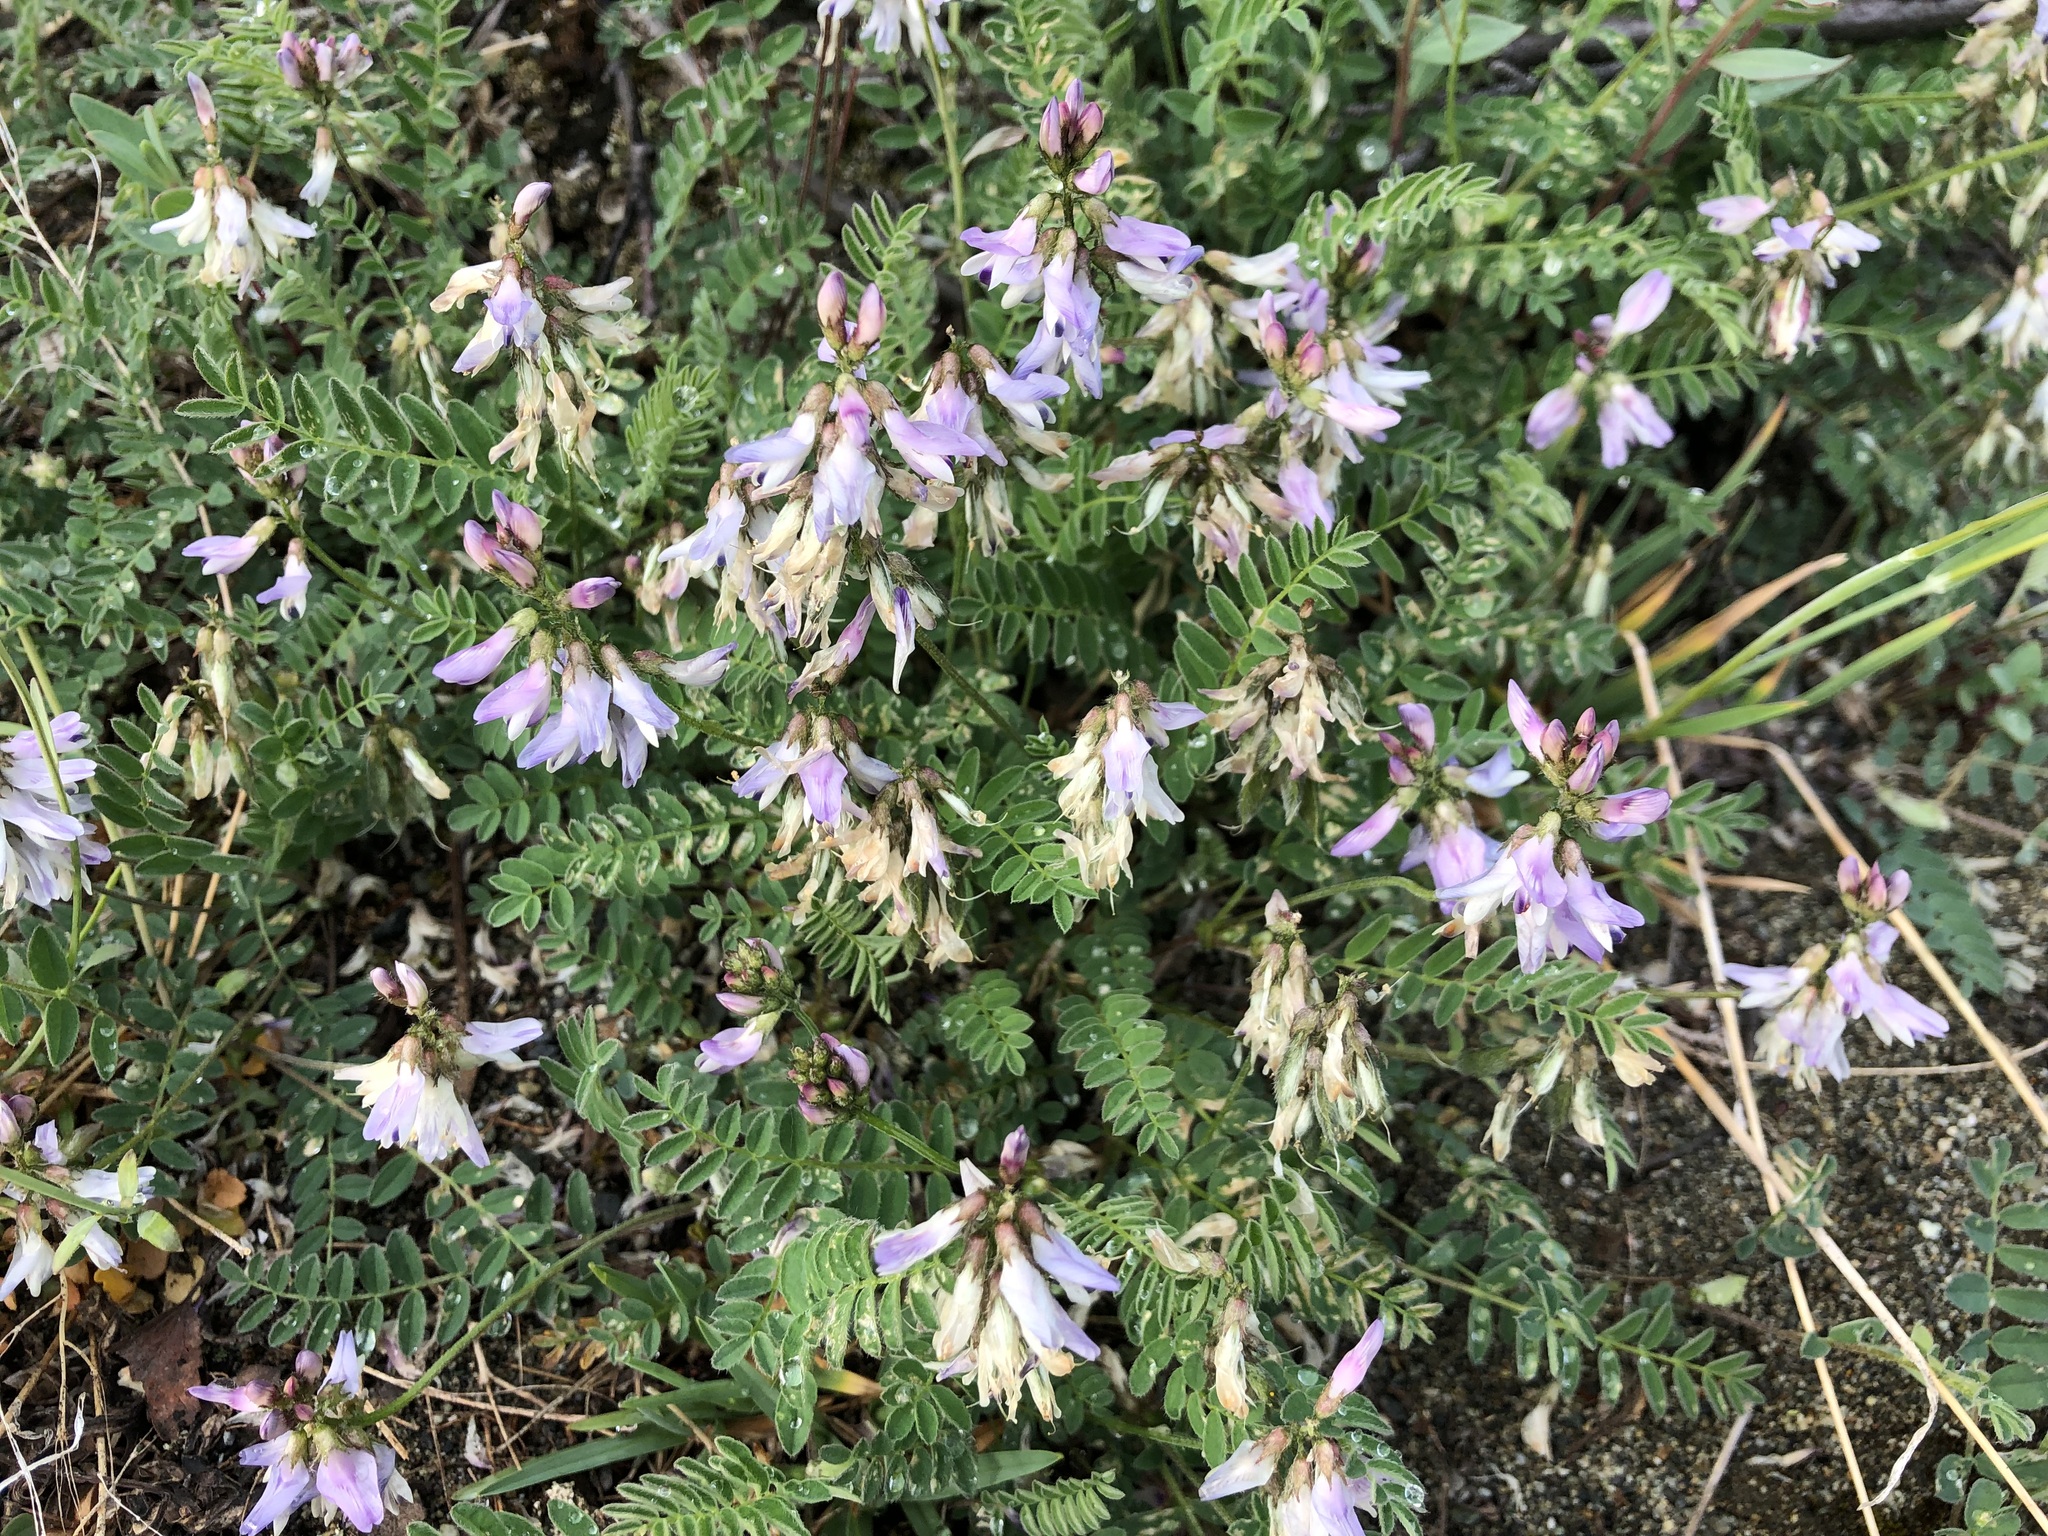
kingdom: Plantae
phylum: Tracheophyta
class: Magnoliopsida
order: Fabales
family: Fabaceae
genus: Astragalus
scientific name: Astragalus alpinus
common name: Alpine milk-vetch
